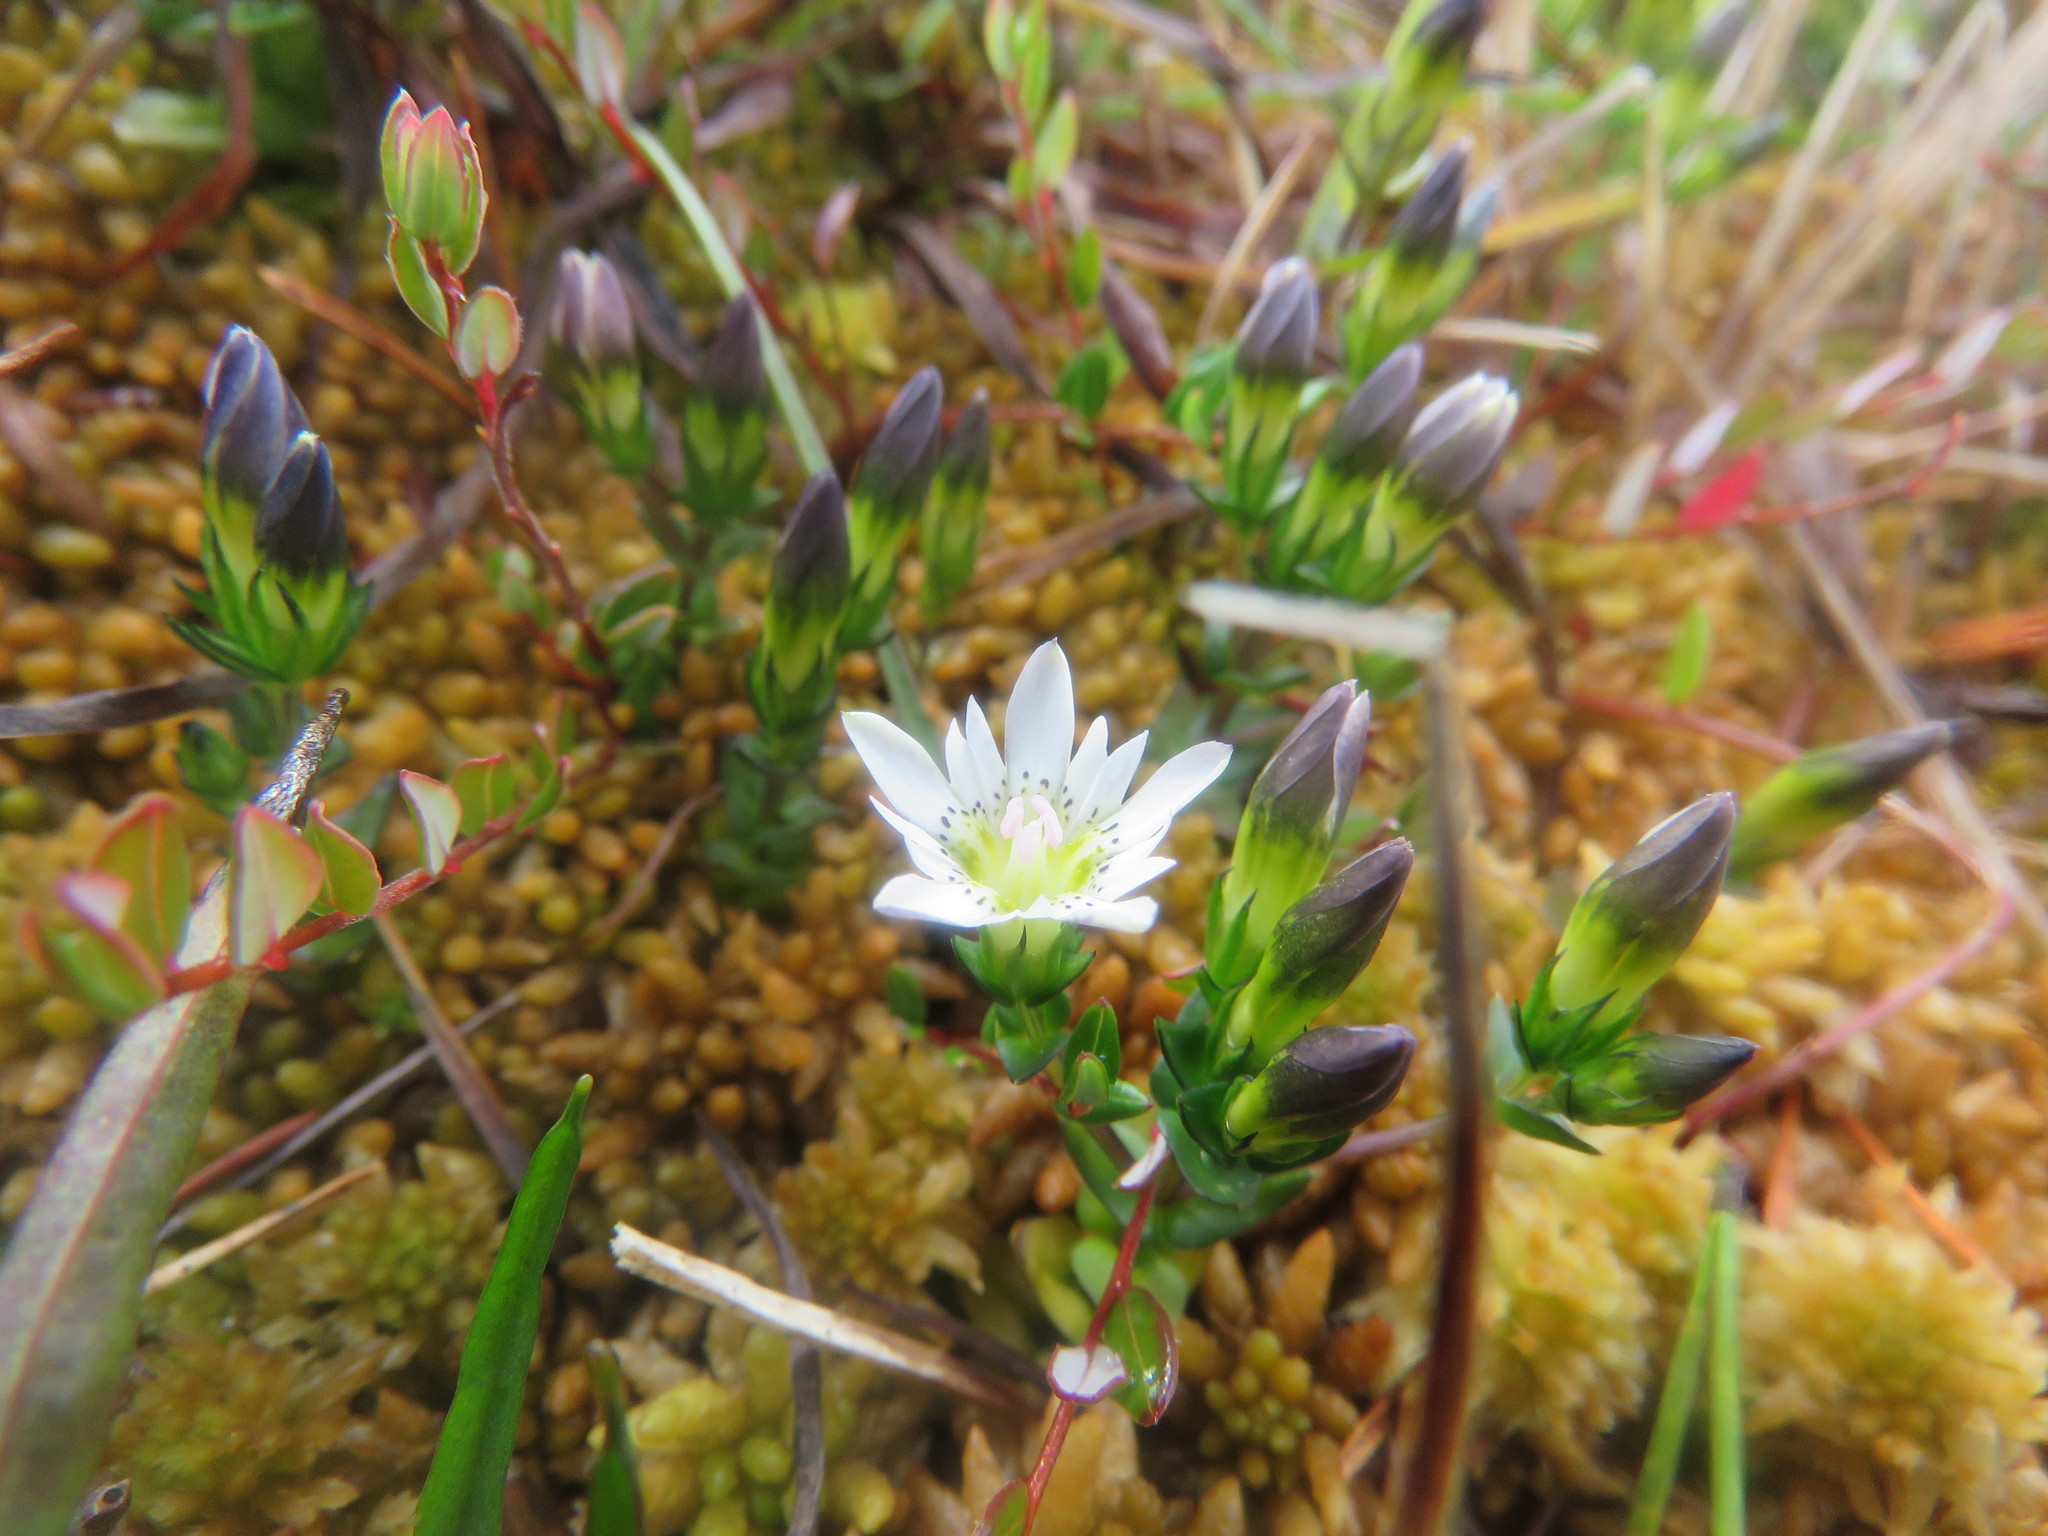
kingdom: Plantae
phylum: Tracheophyta
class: Magnoliopsida
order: Gentianales
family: Gentianaceae
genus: Gentiana
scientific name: Gentiana douglasiana
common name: Swamp gentian
